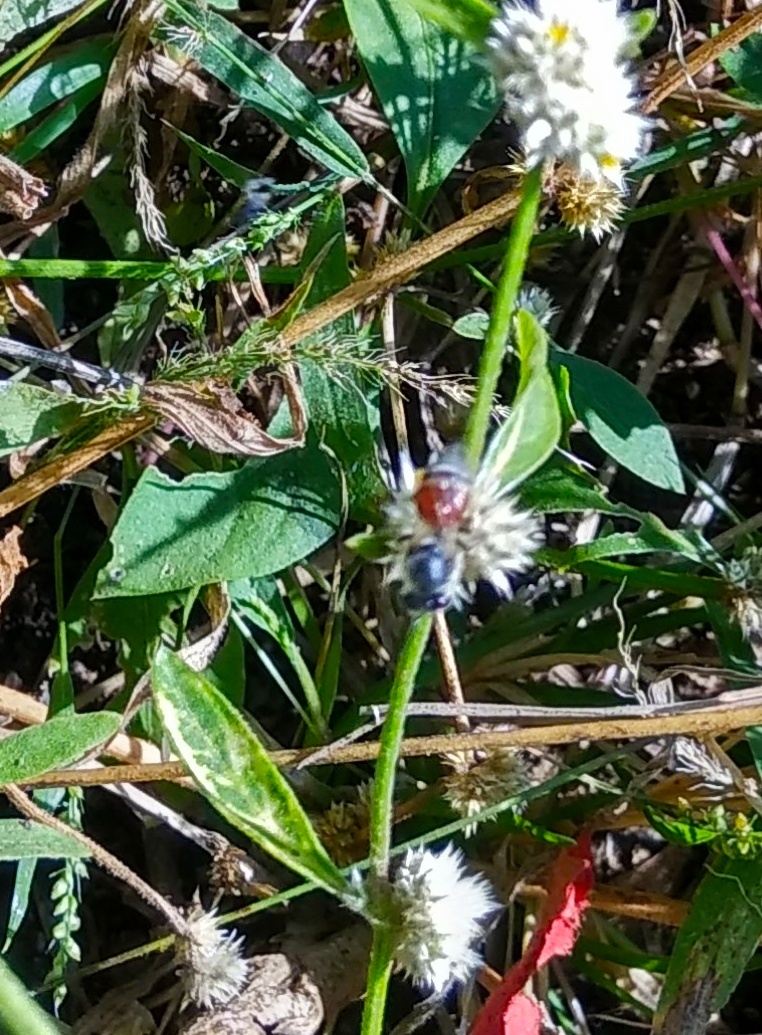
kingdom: Animalia
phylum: Arthropoda
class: Insecta
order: Hymenoptera
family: Apidae
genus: Apis
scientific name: Apis florea
